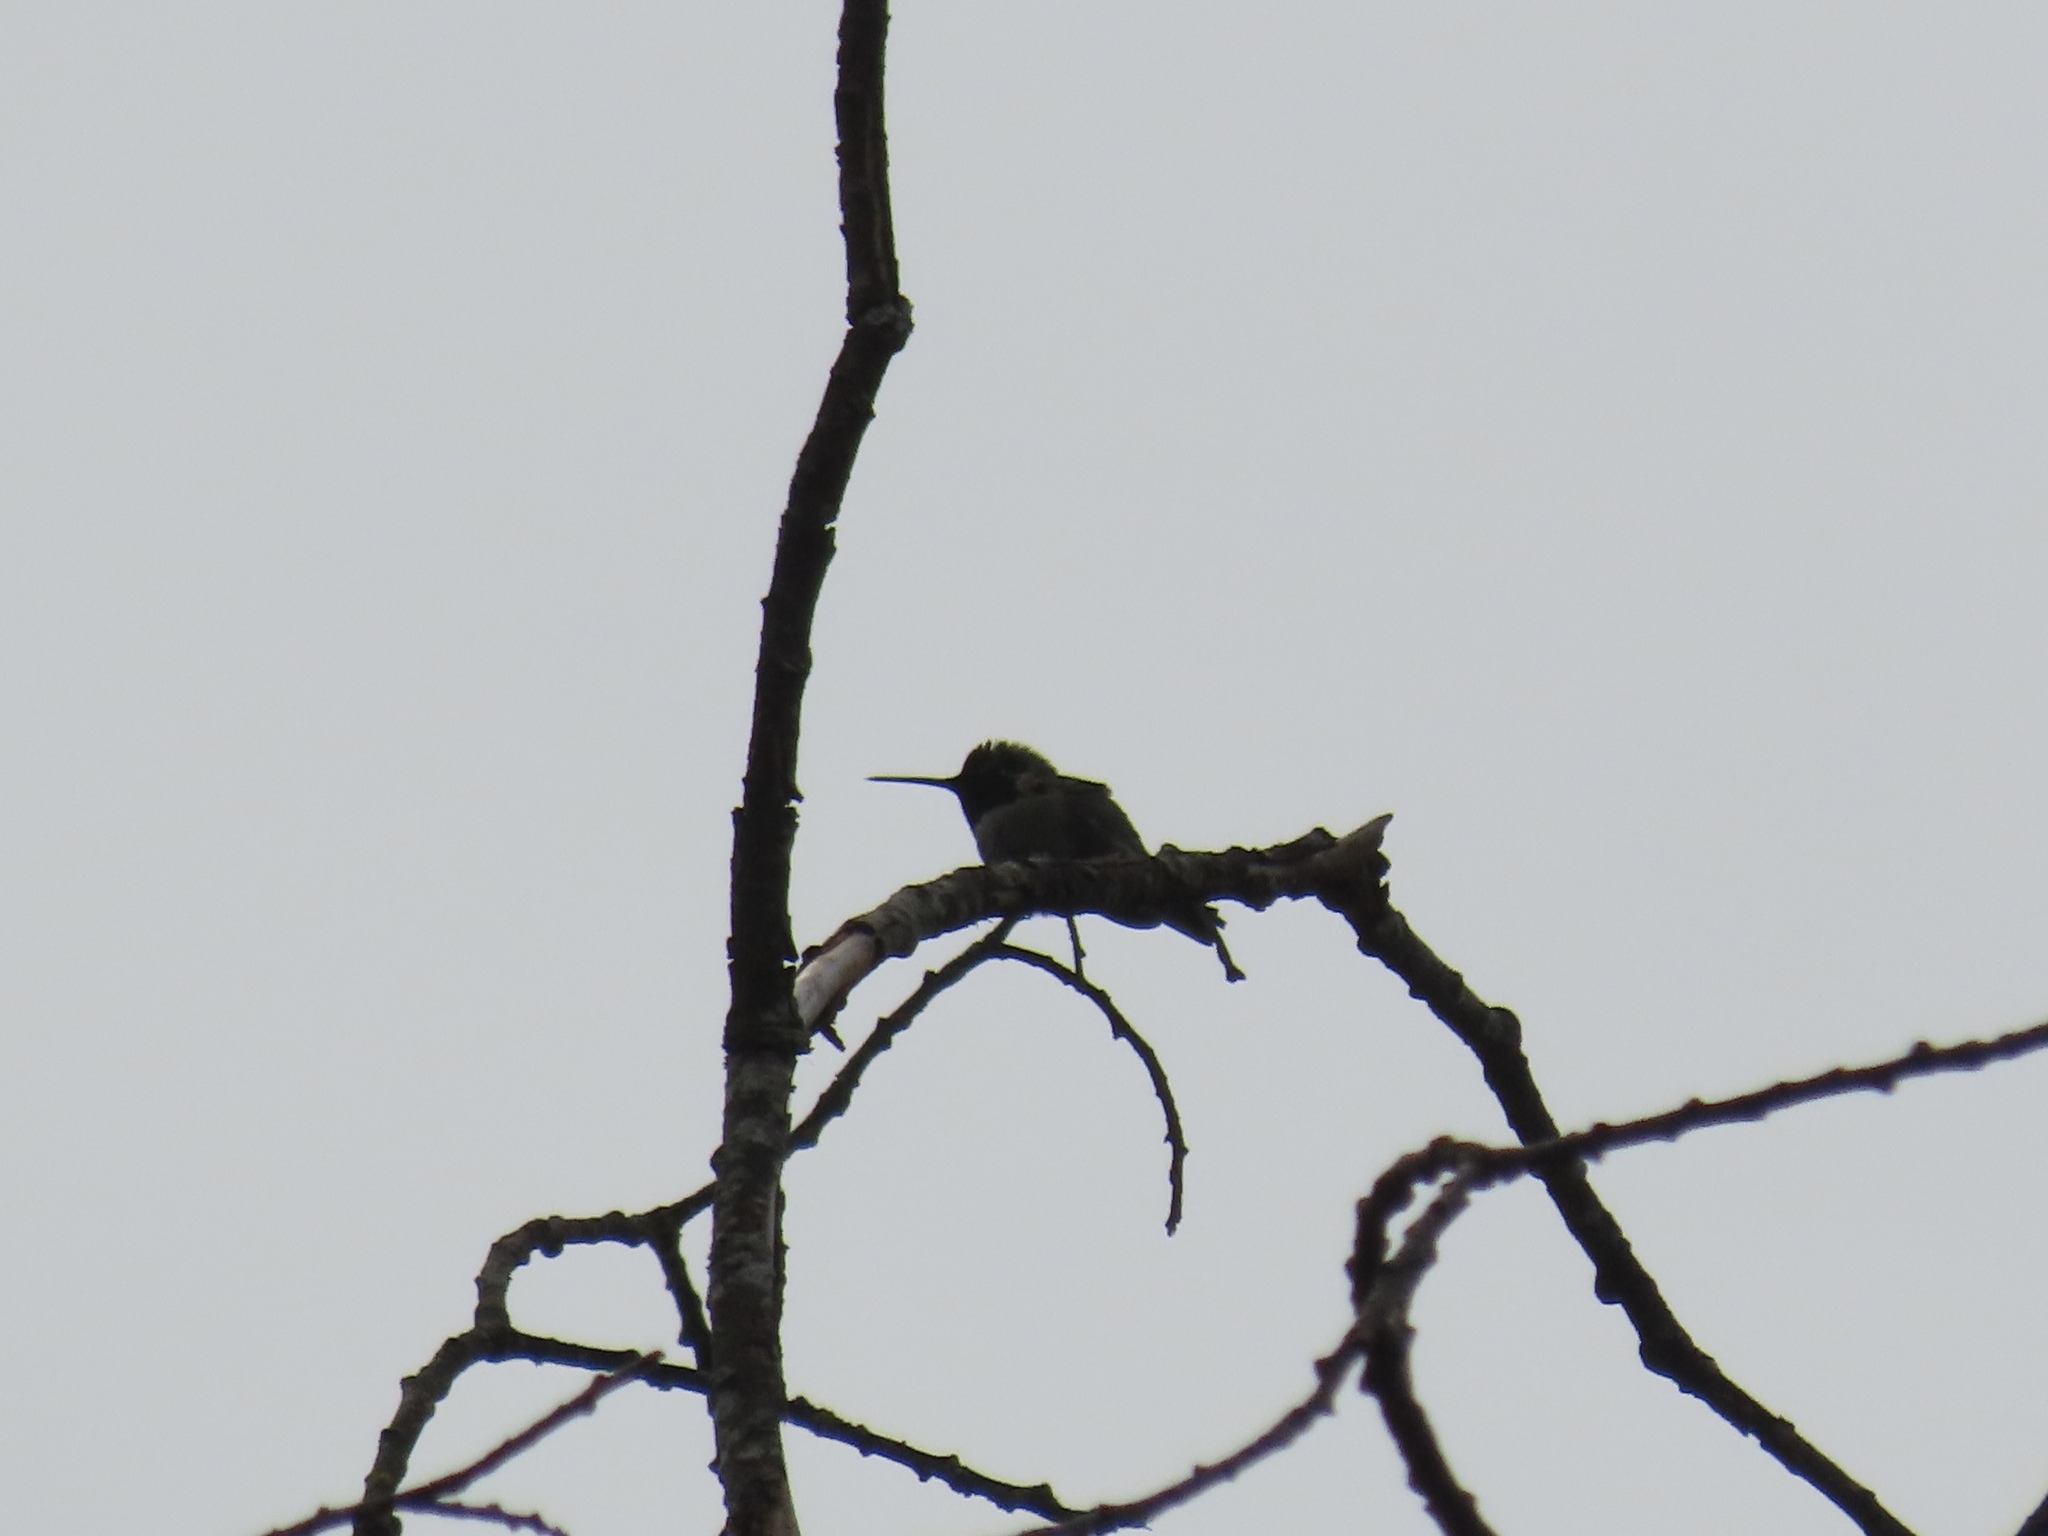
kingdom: Animalia
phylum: Chordata
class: Aves
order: Apodiformes
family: Trochilidae
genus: Calypte
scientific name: Calypte anna
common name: Anna's hummingbird
